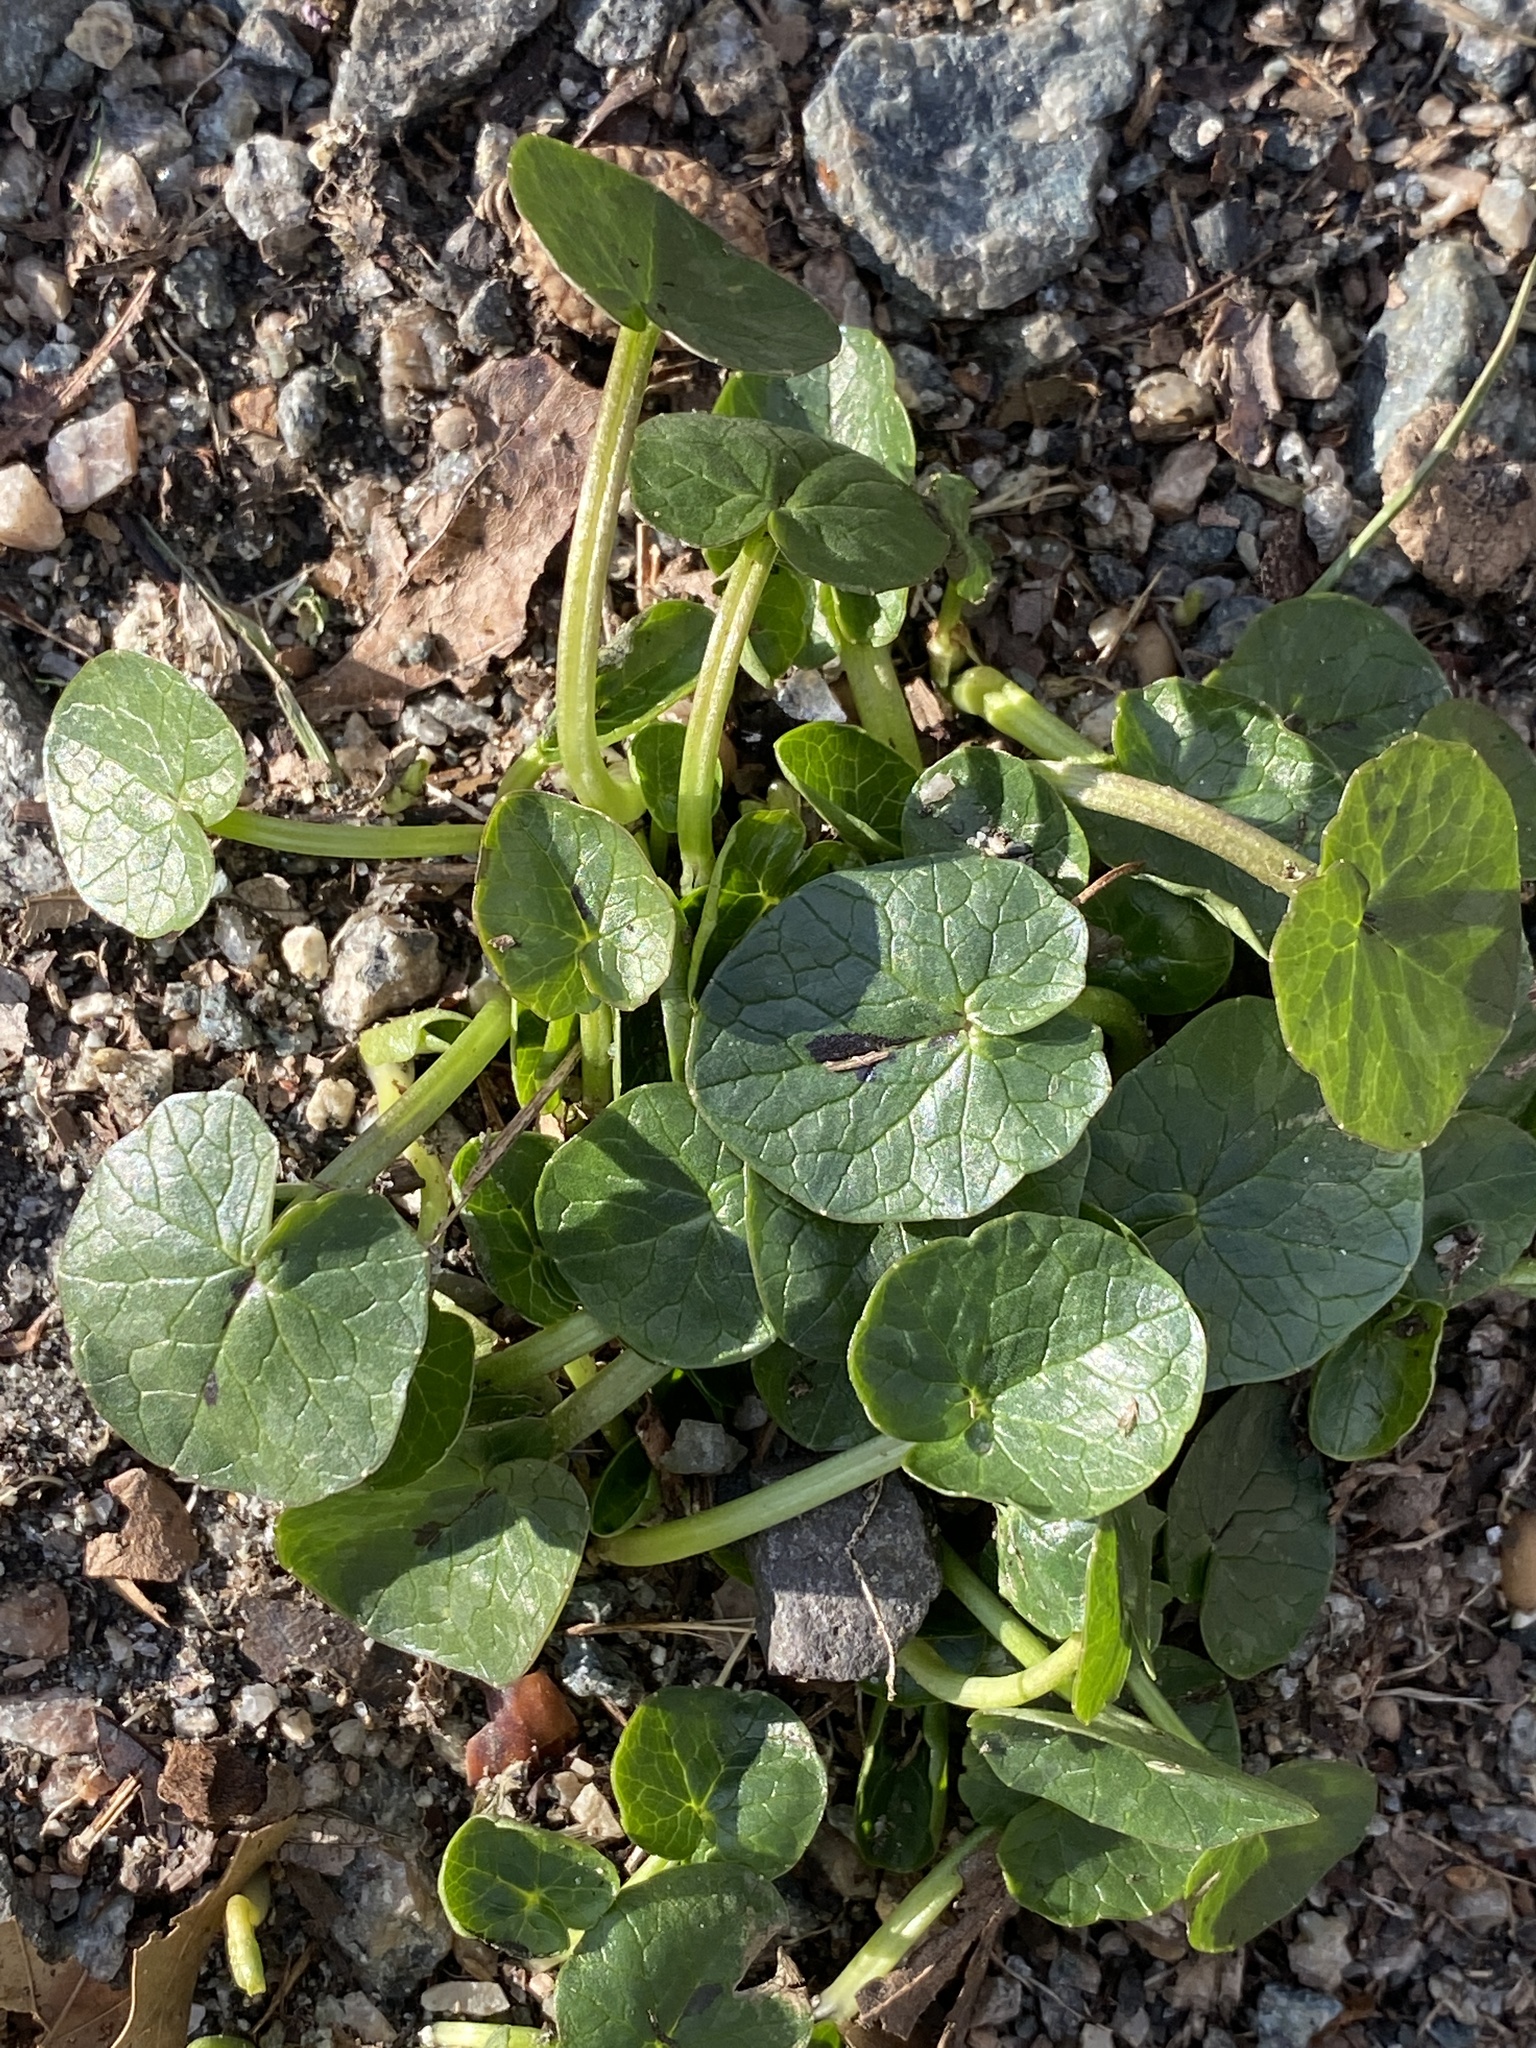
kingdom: Plantae
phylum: Tracheophyta
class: Magnoliopsida
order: Ranunculales
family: Ranunculaceae
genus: Ficaria
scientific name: Ficaria verna
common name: Lesser celandine
